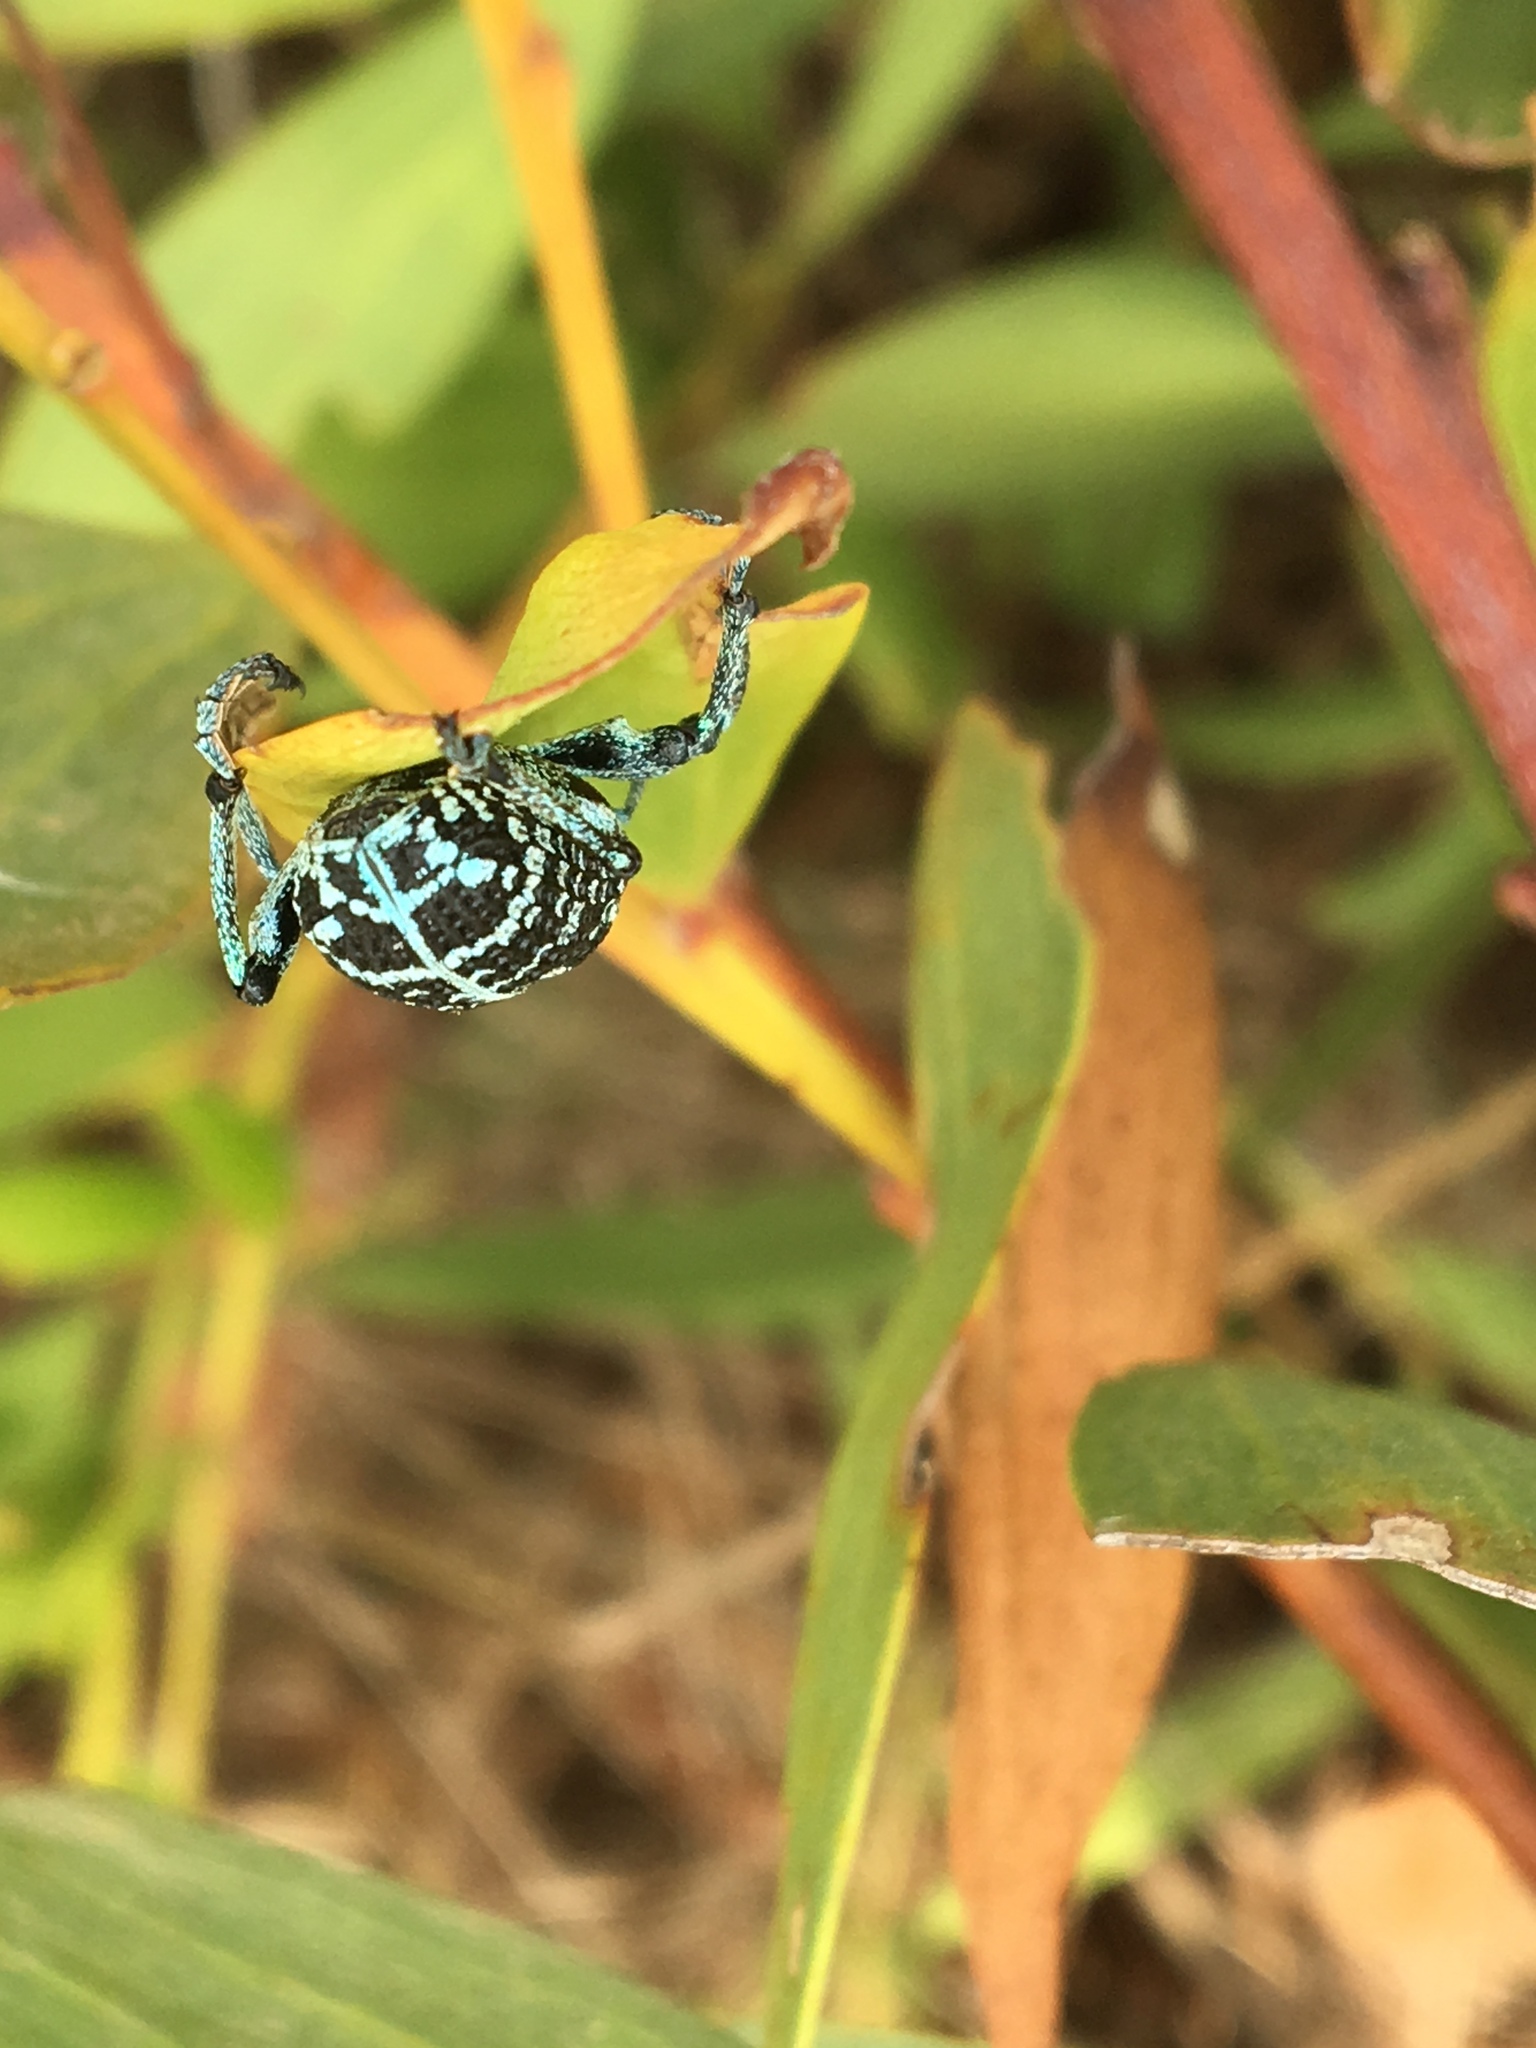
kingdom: Animalia
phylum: Arthropoda
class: Insecta
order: Coleoptera
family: Curculionidae
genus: Chrysolopus
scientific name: Chrysolopus spectabilis
